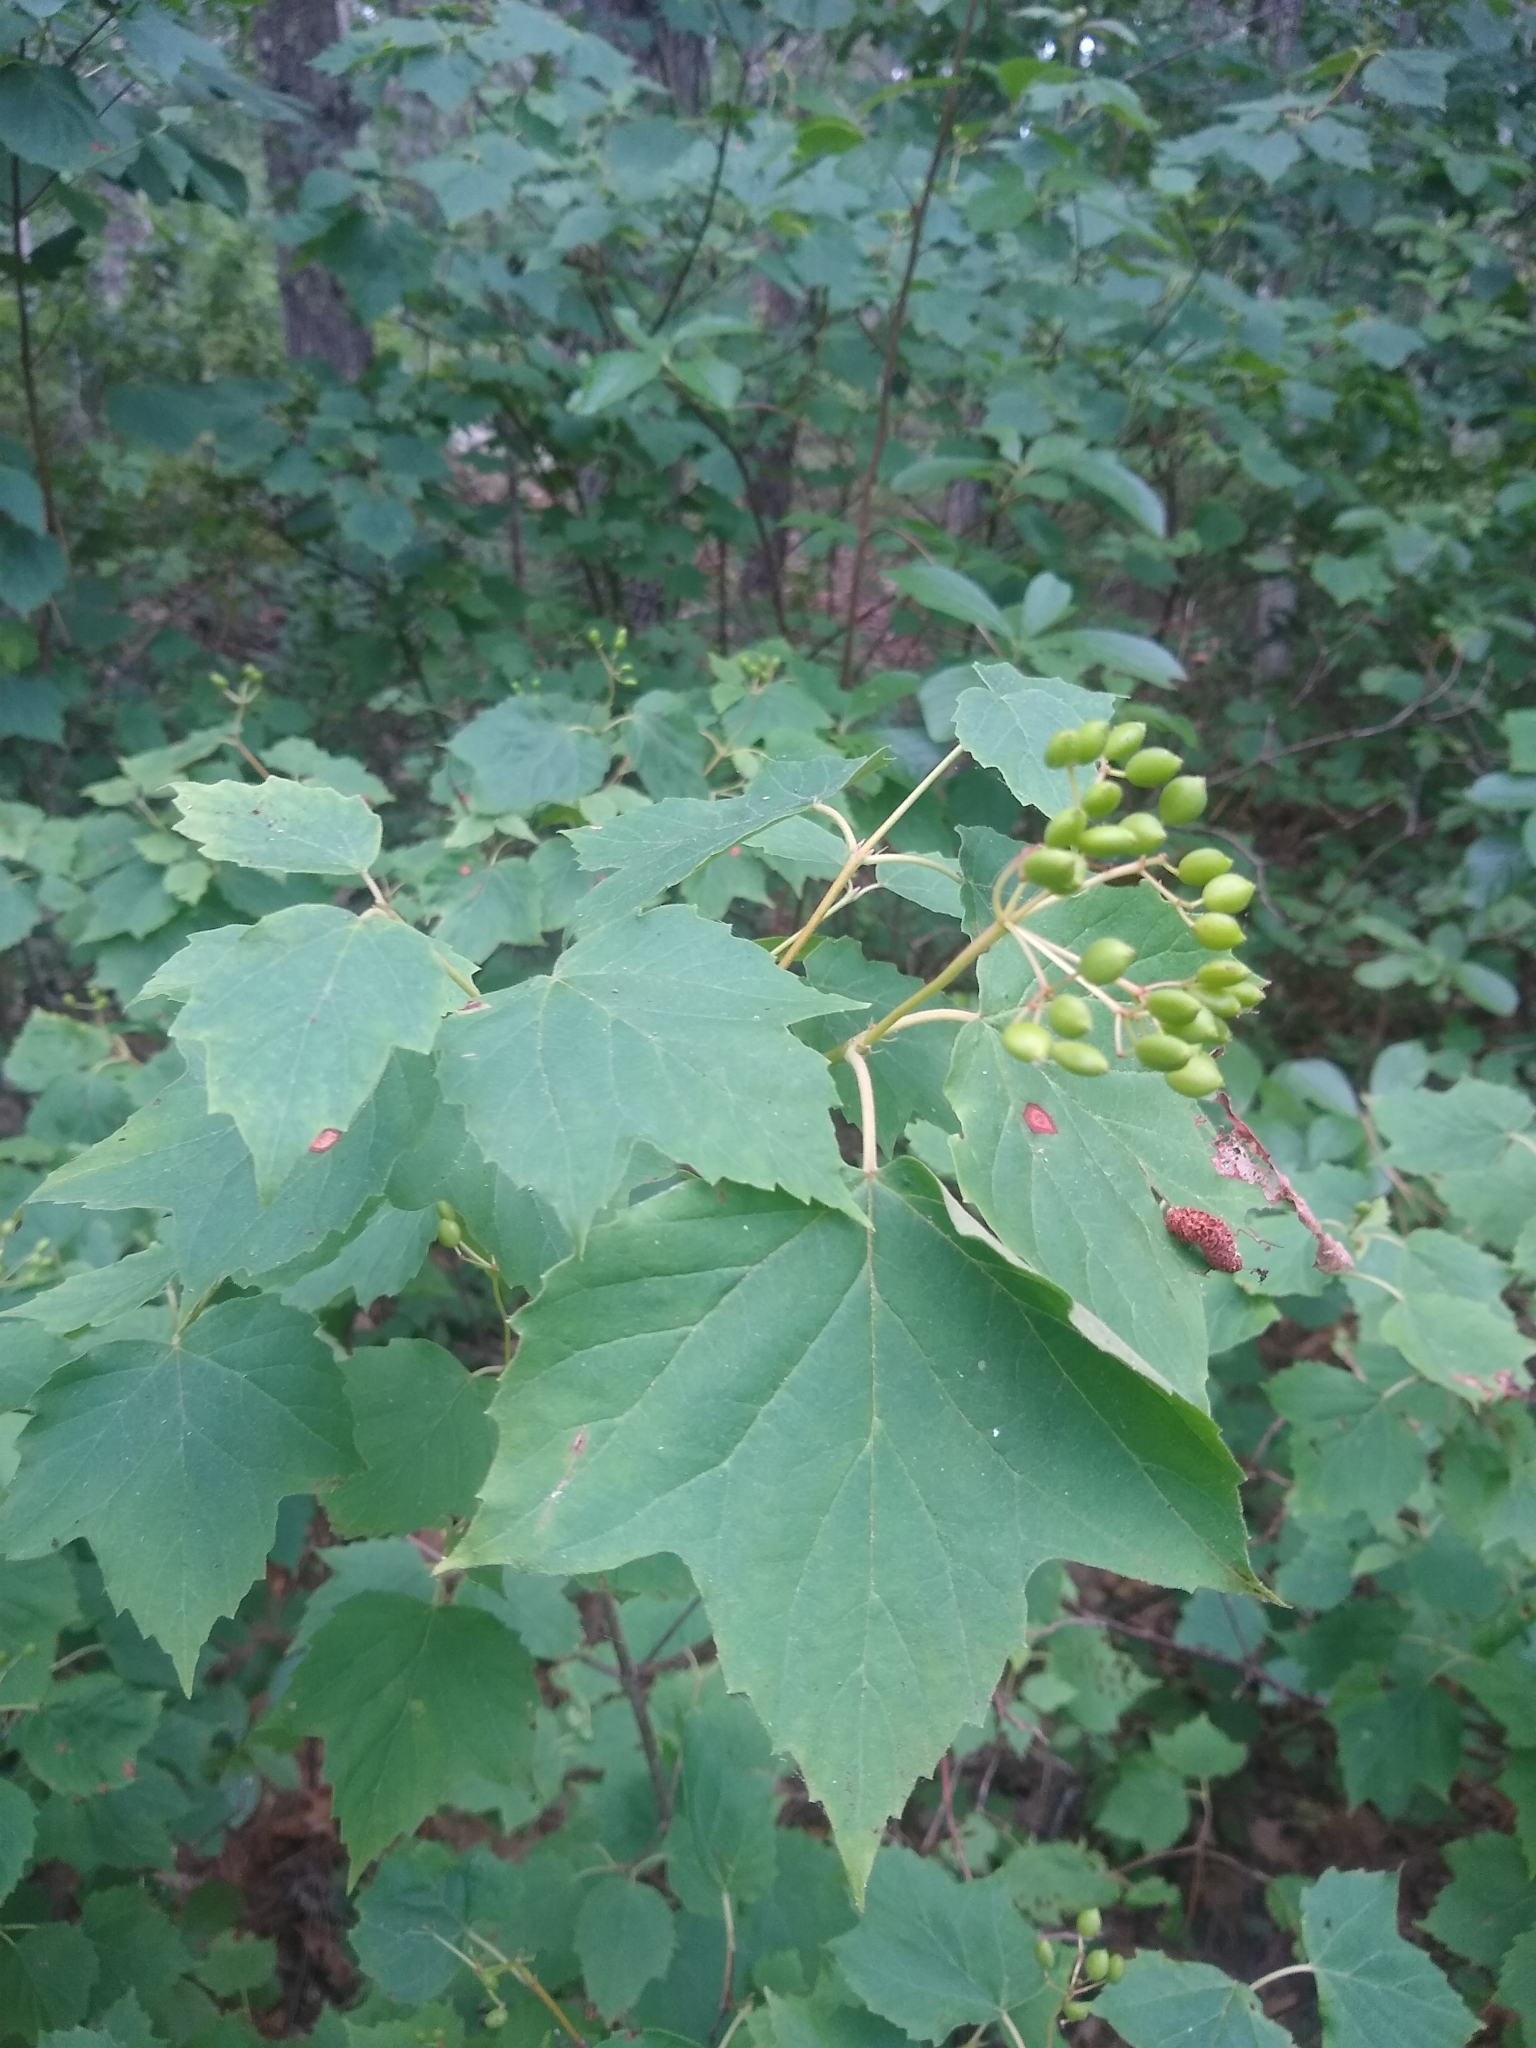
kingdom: Plantae
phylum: Tracheophyta
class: Magnoliopsida
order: Dipsacales
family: Viburnaceae
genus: Viburnum
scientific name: Viburnum acerifolium
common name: Dockmackie
